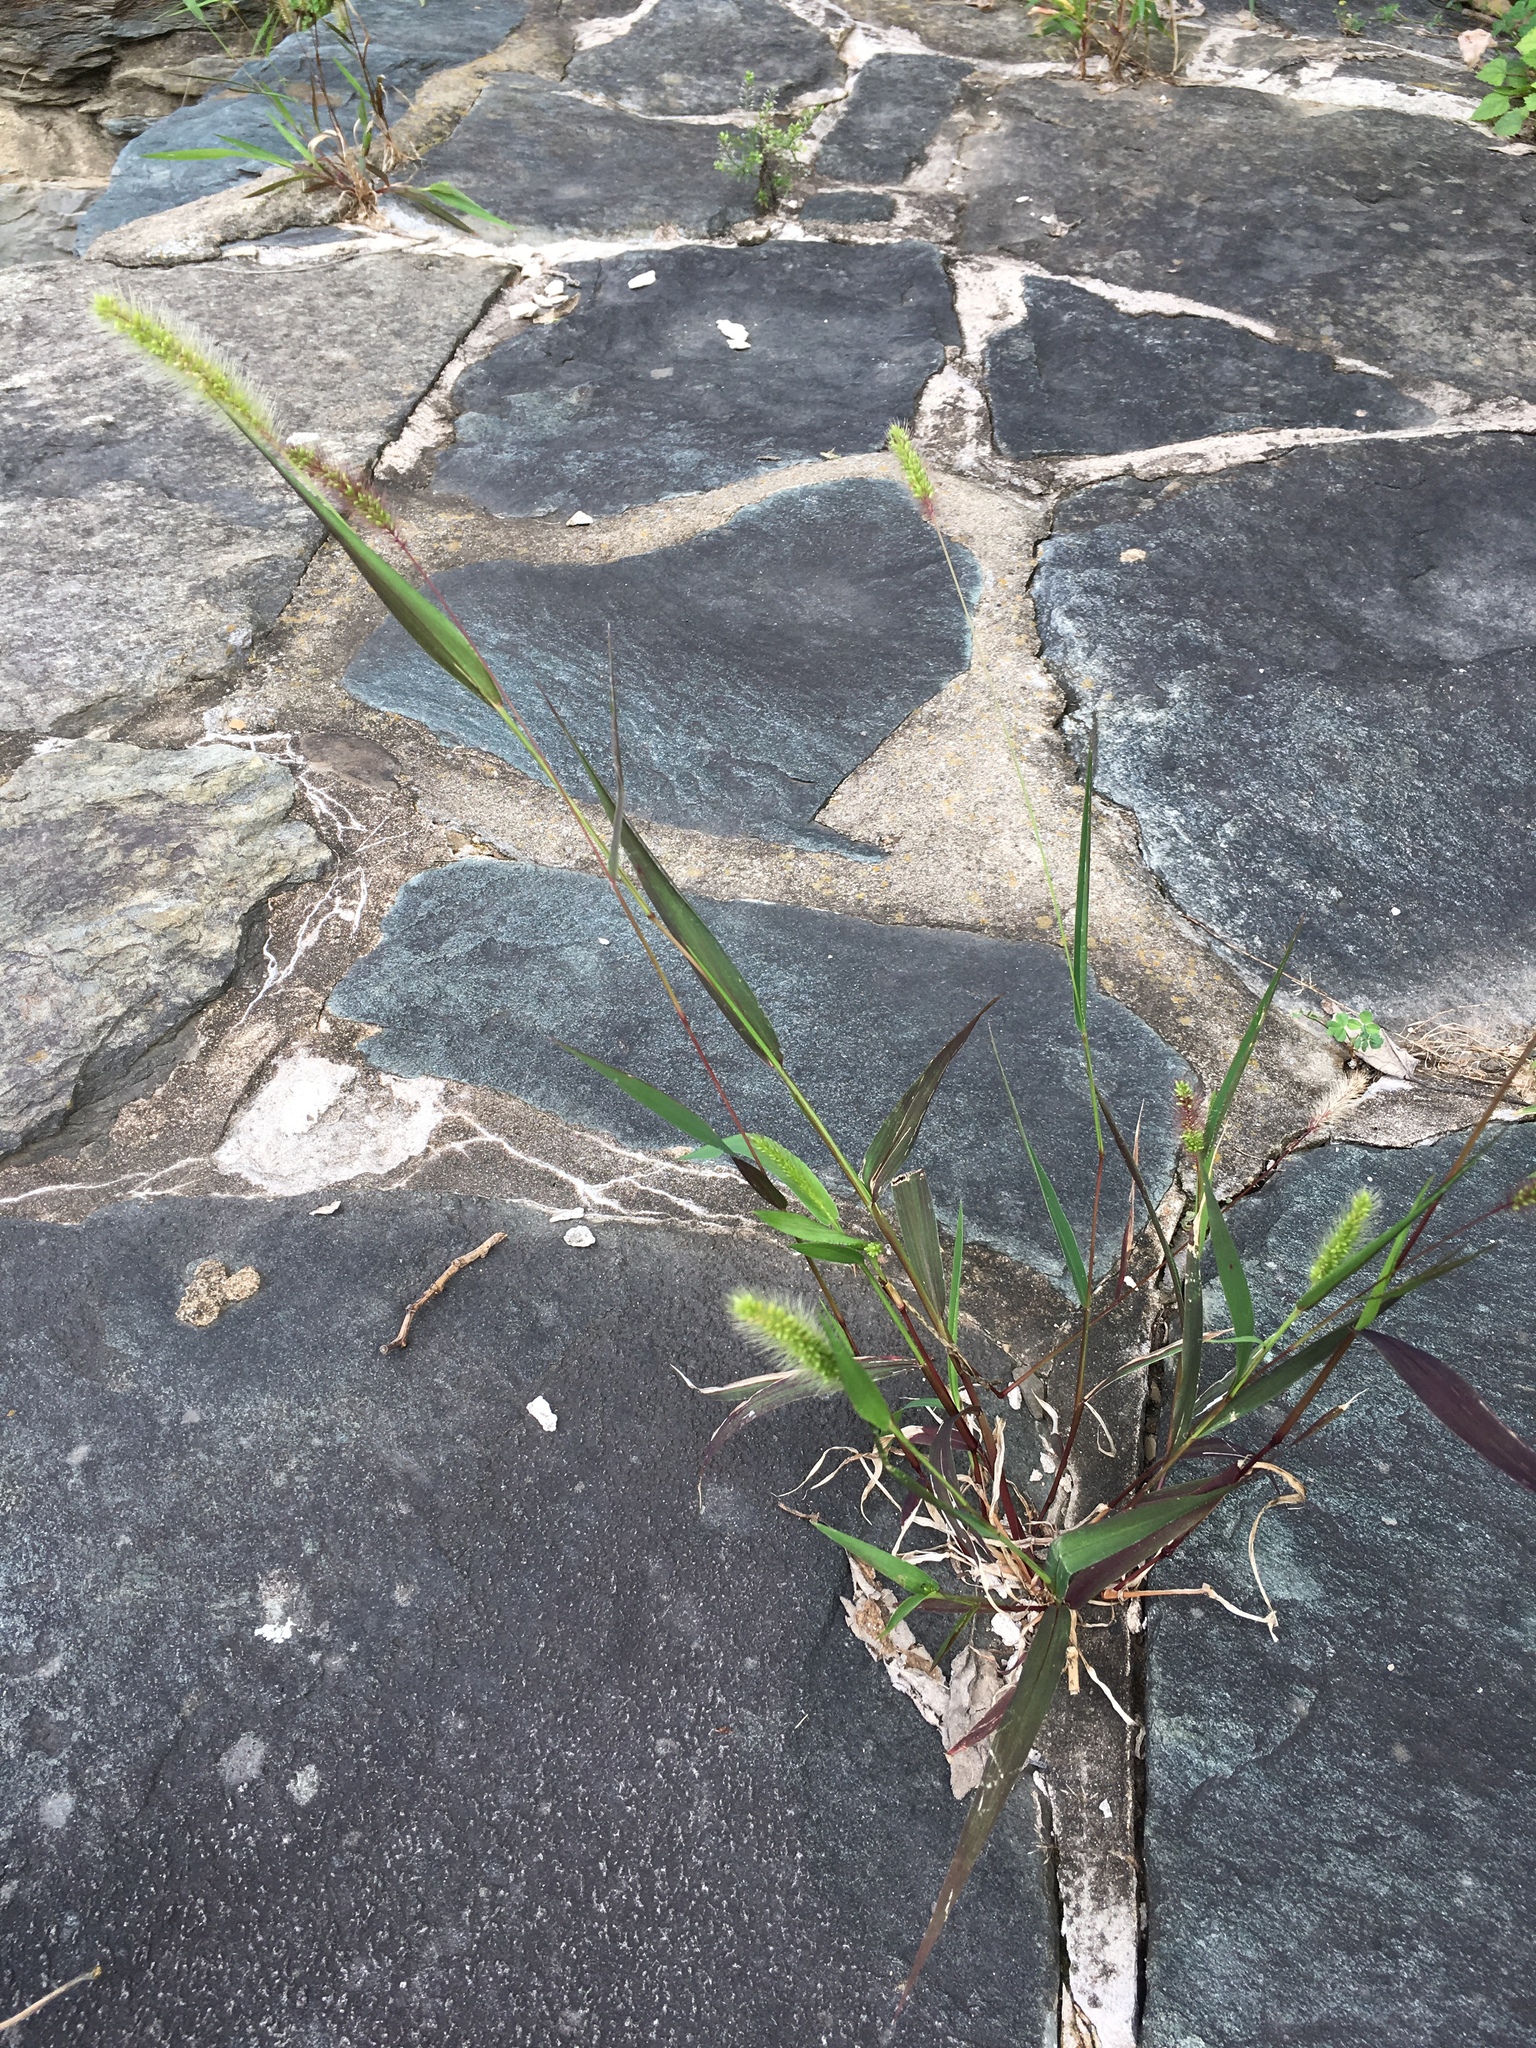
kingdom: Plantae
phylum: Tracheophyta
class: Liliopsida
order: Poales
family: Poaceae
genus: Setaria
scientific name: Setaria pumila
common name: Yellow bristle-grass
